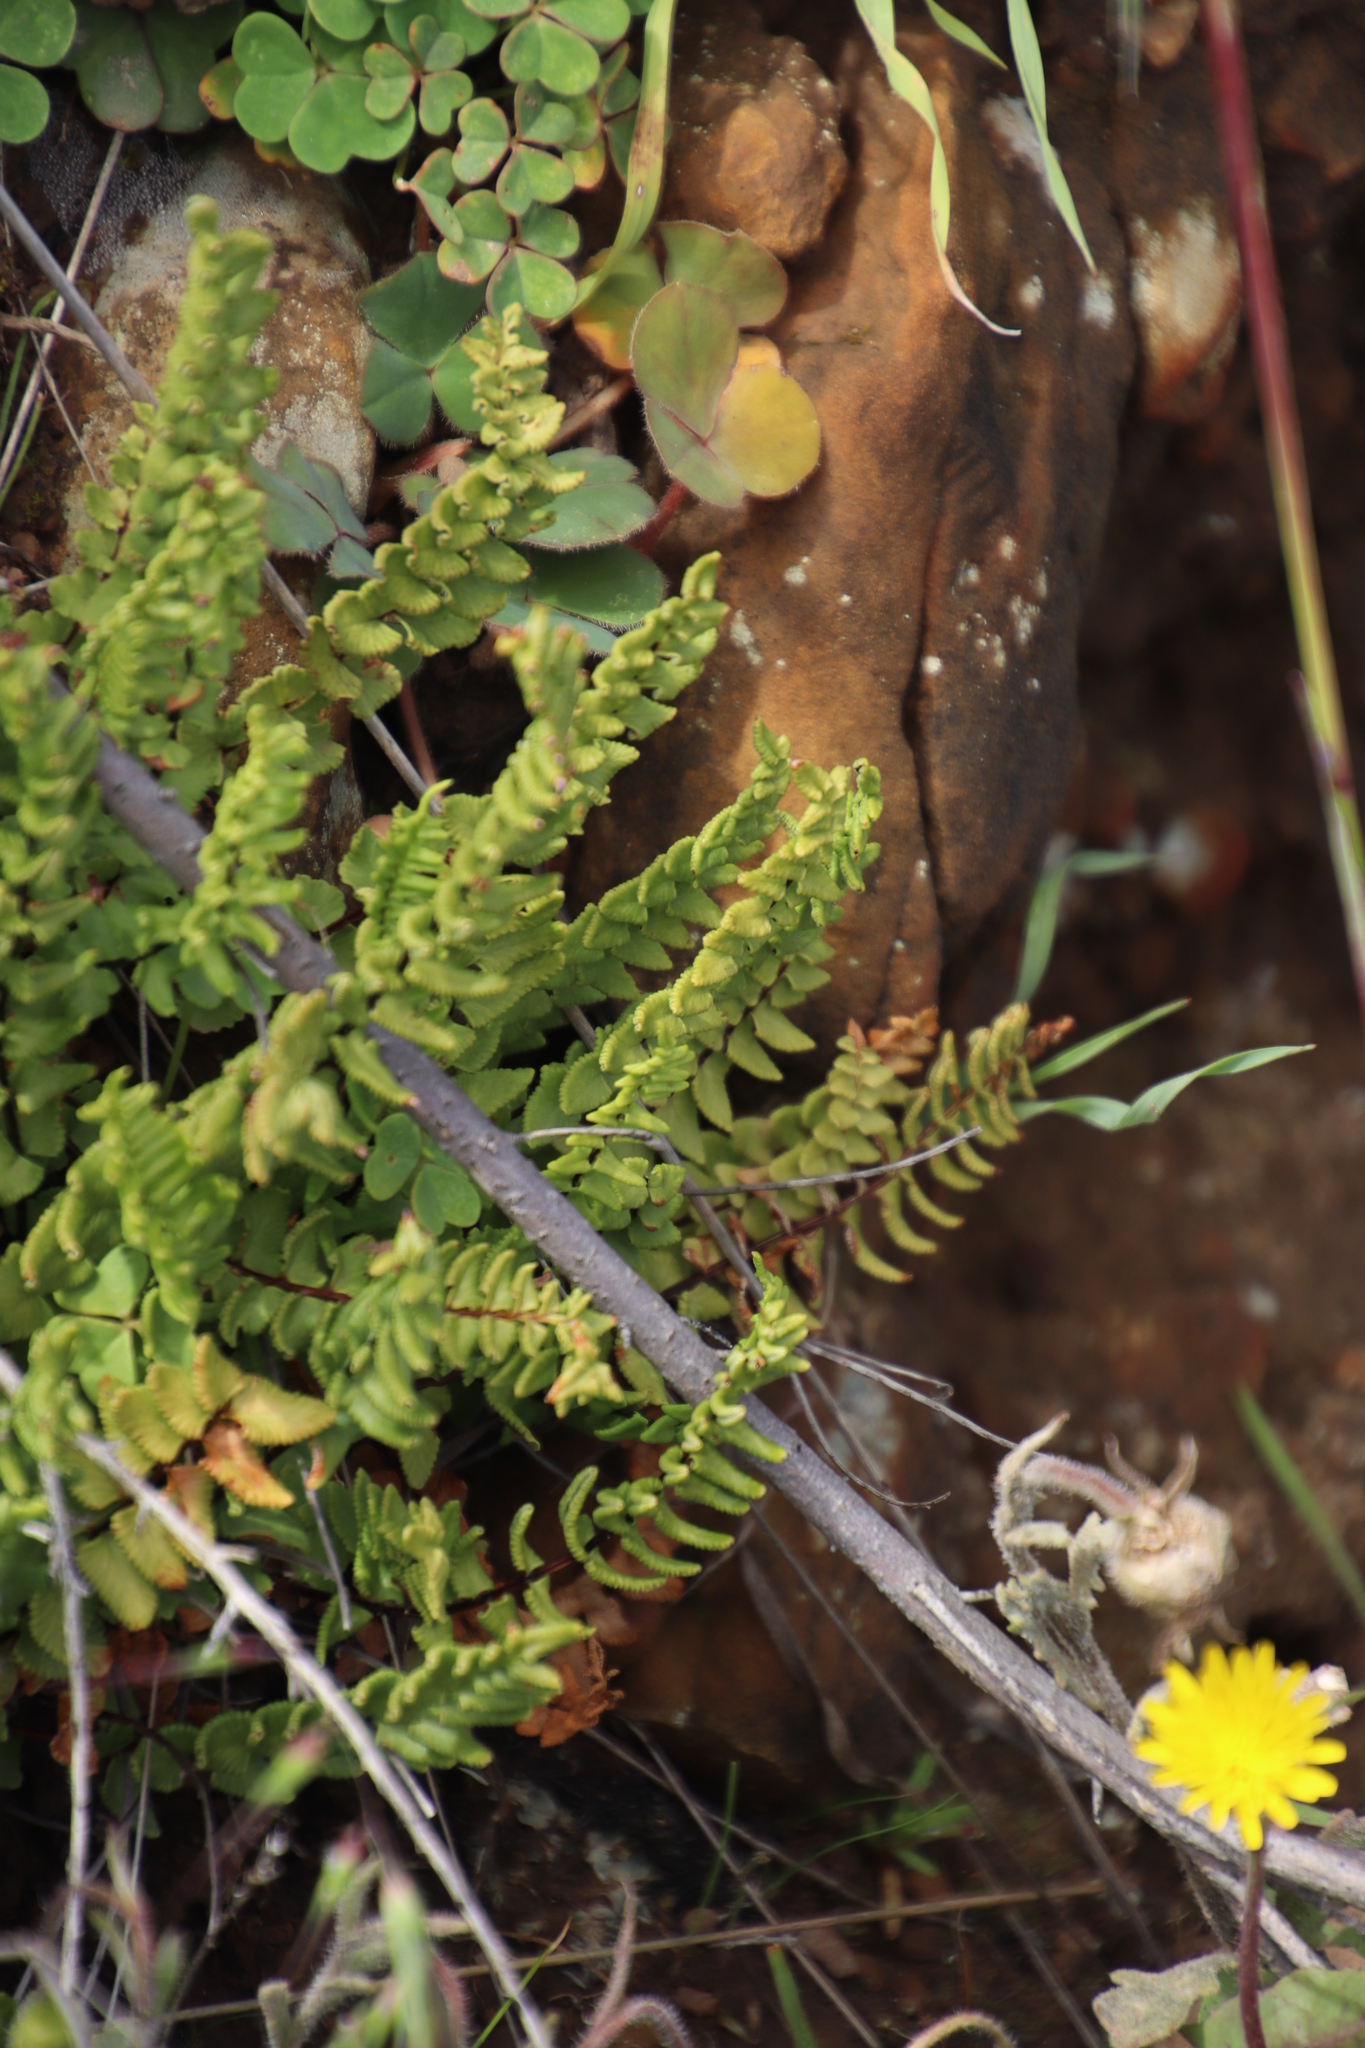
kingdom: Plantae
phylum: Tracheophyta
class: Polypodiopsida
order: Polypodiales
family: Pteridaceae
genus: Cheilanthes
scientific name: Cheilanthes hastata
